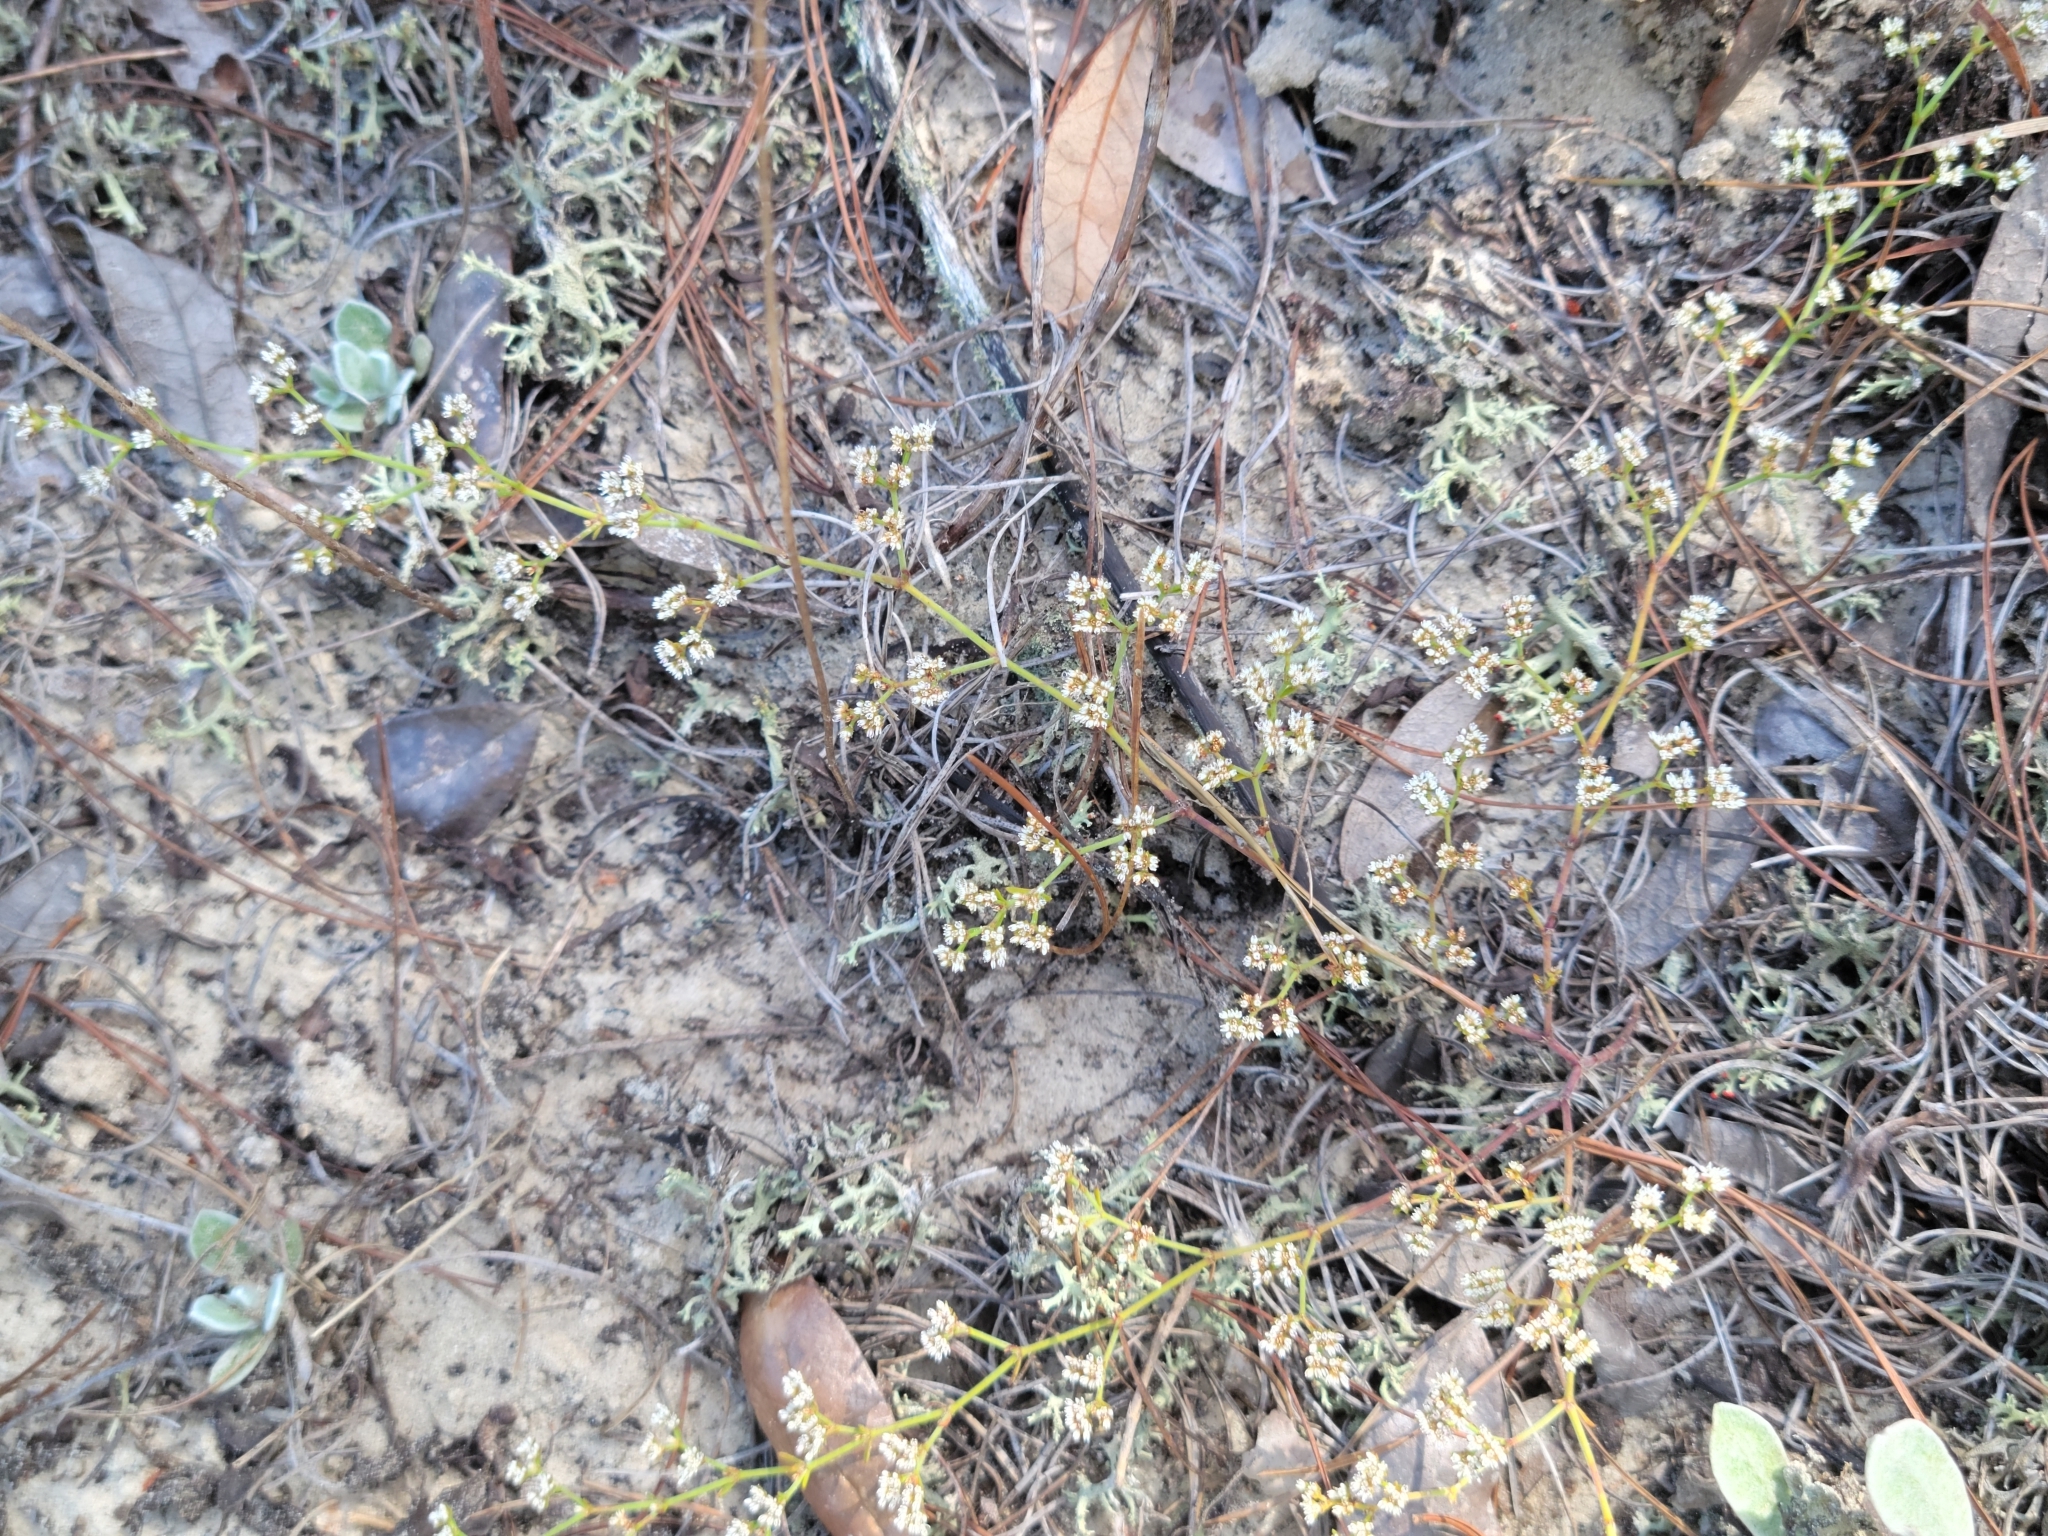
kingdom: Plantae
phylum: Tracheophyta
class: Magnoliopsida
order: Caryophyllales
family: Caryophyllaceae
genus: Paronychia
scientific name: Paronychia patula
